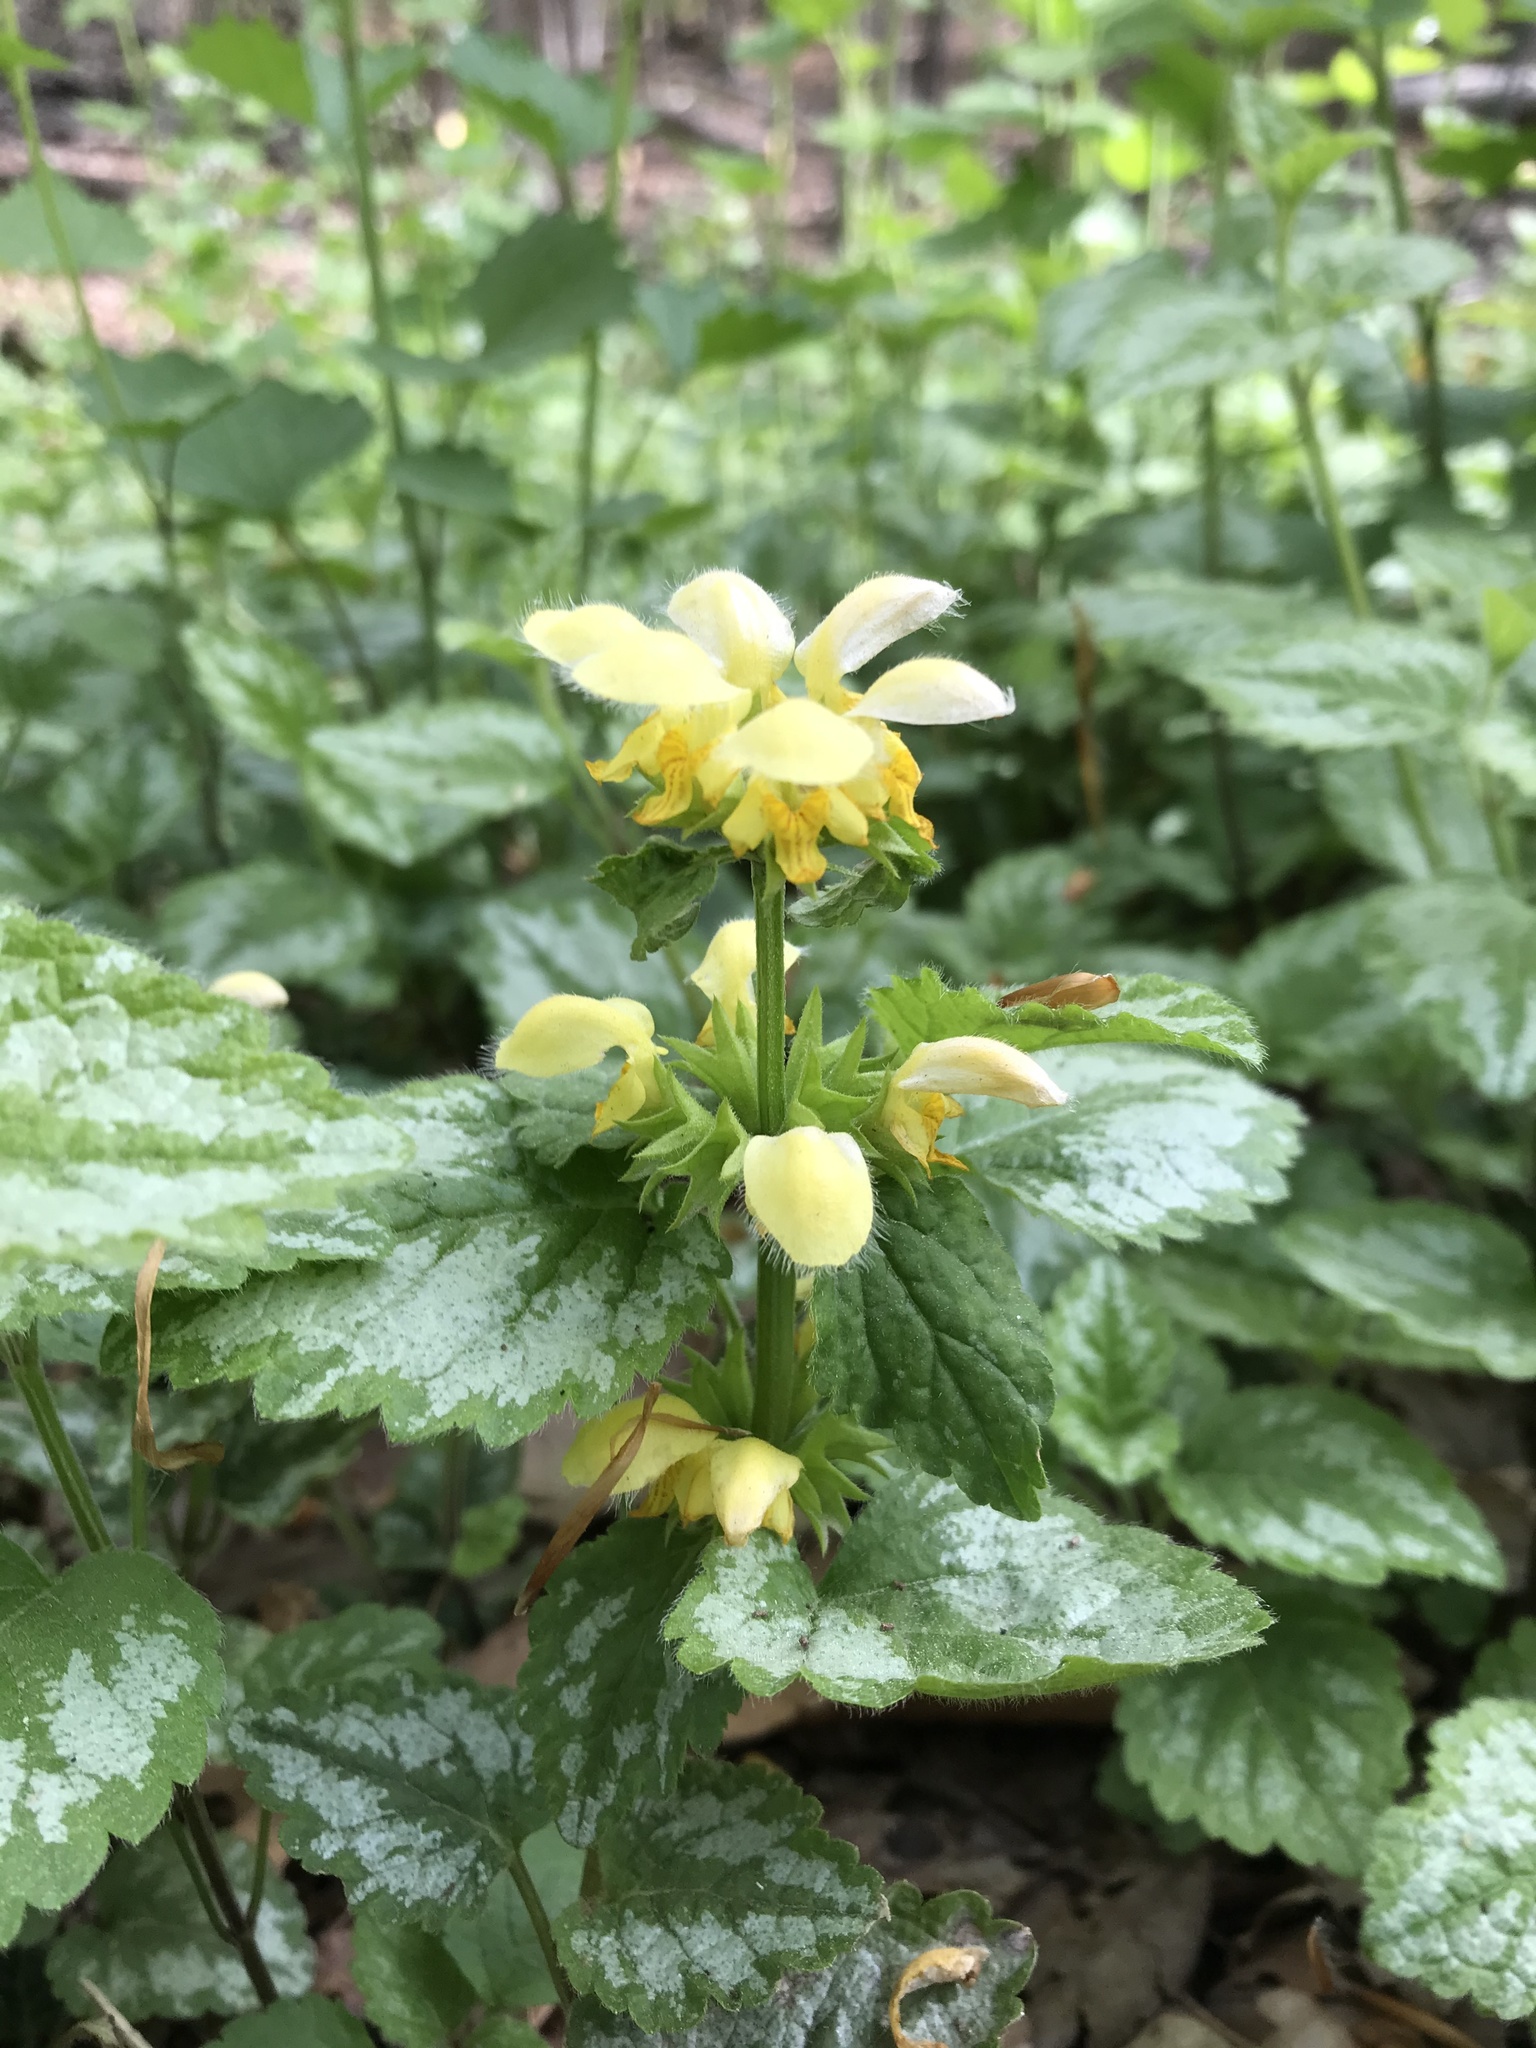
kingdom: Plantae
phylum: Tracheophyta
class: Magnoliopsida
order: Lamiales
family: Lamiaceae
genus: Lamium
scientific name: Lamium galeobdolon
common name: Yellow archangel
